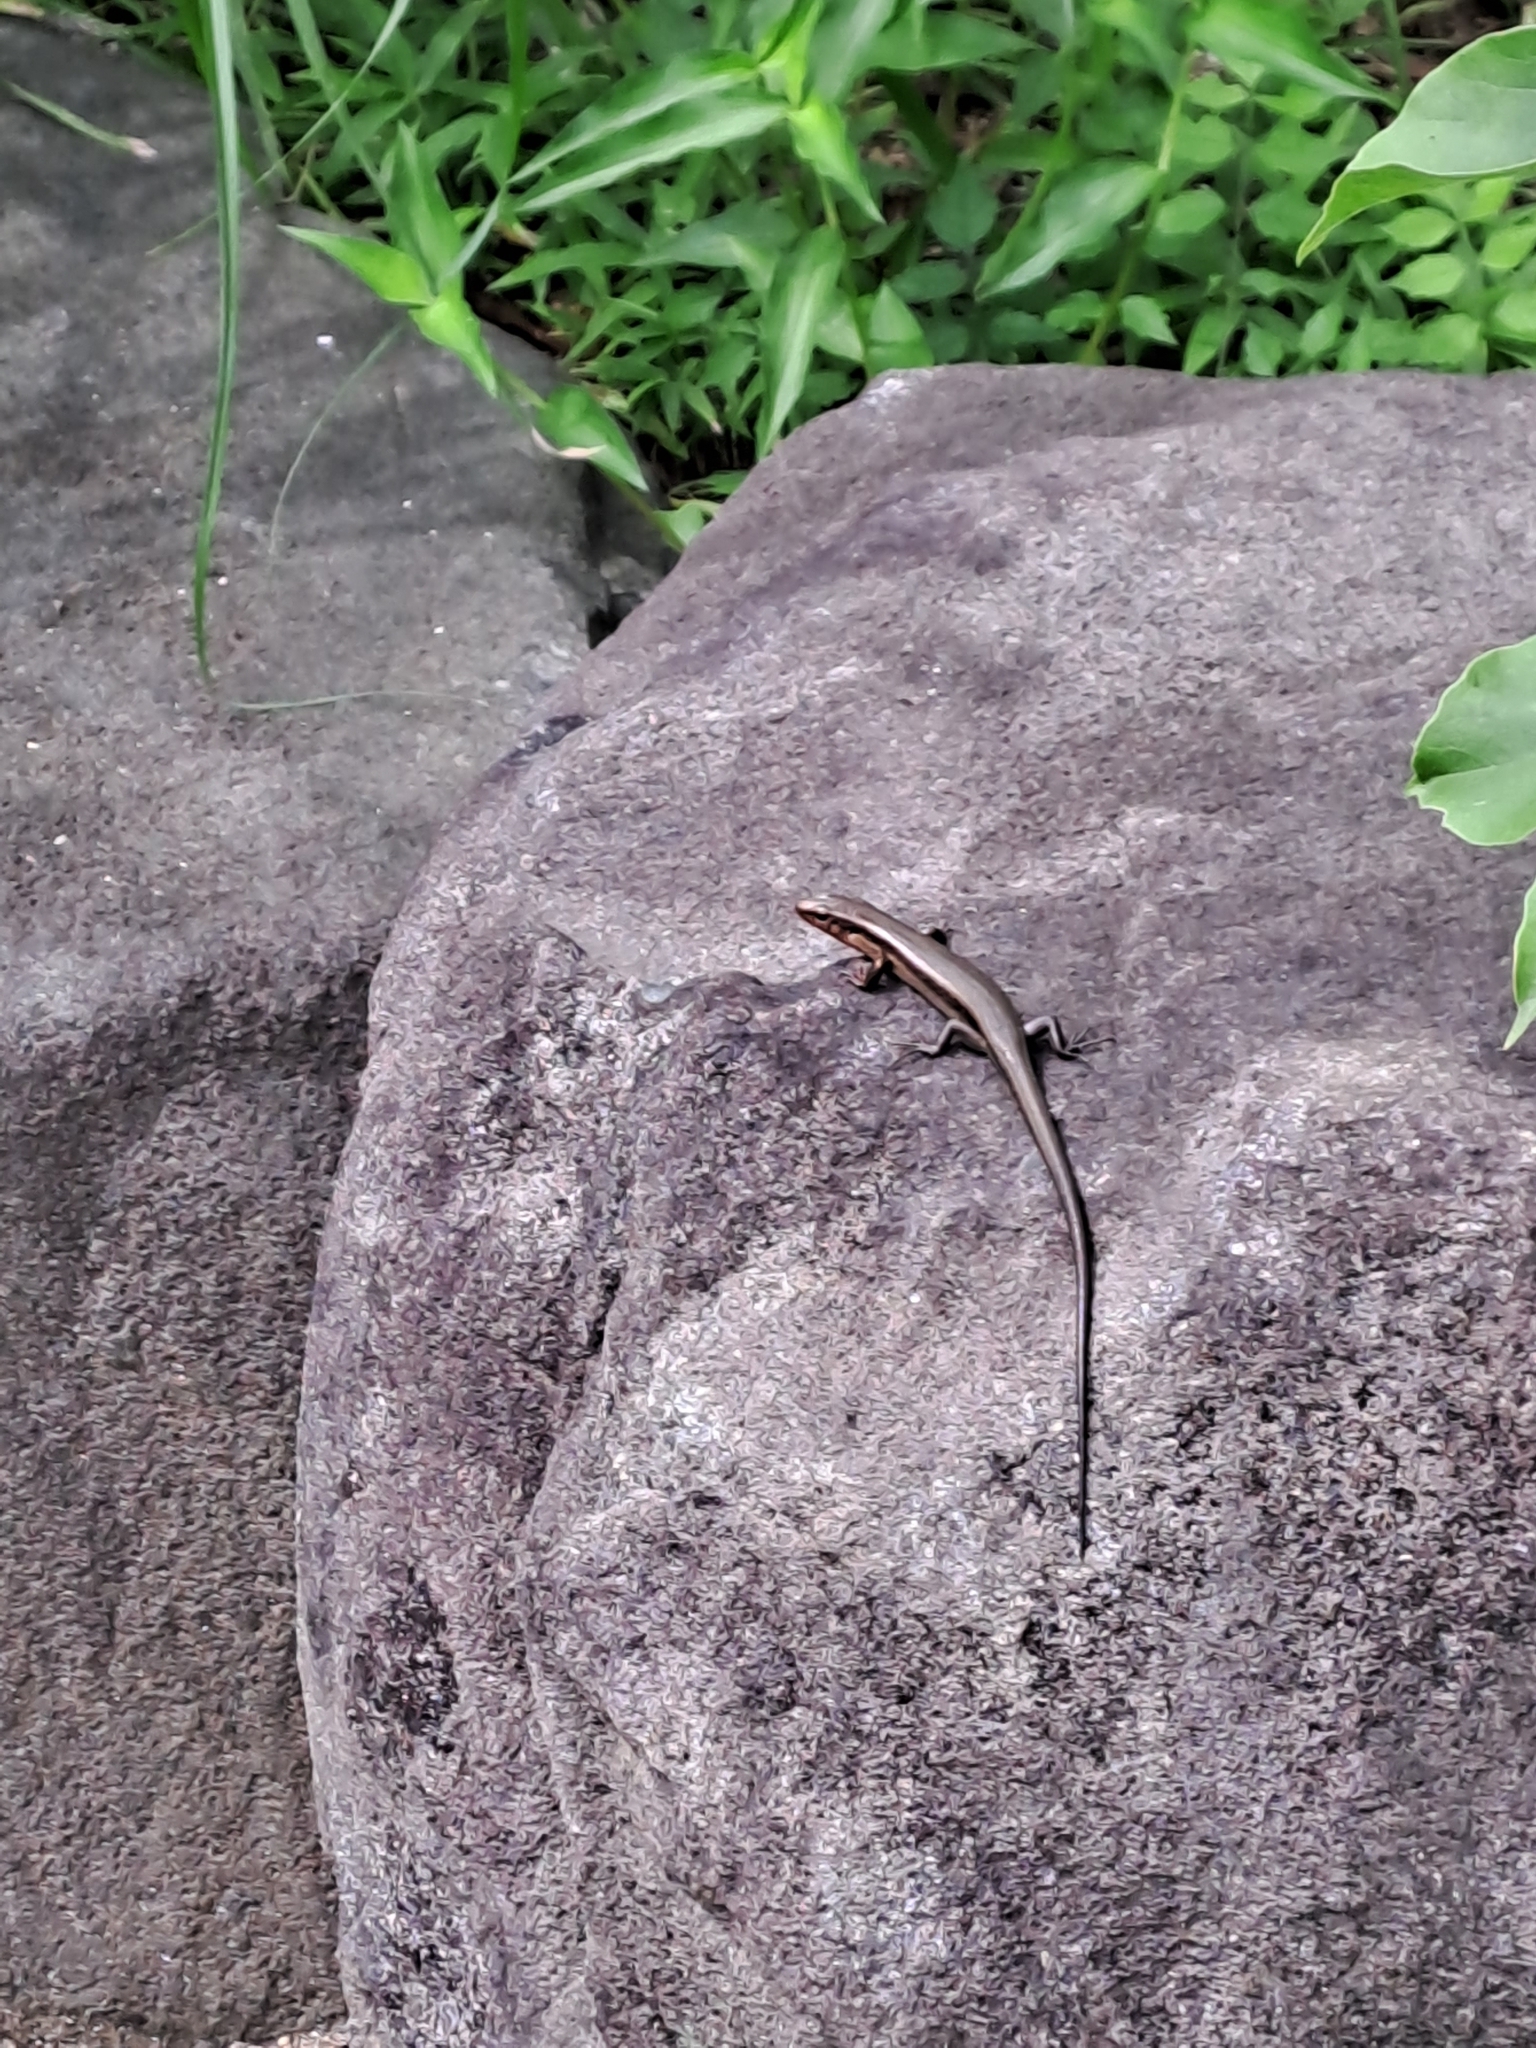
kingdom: Animalia
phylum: Chordata
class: Squamata
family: Scincidae
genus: Plestiodon
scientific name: Plestiodon japonicus
